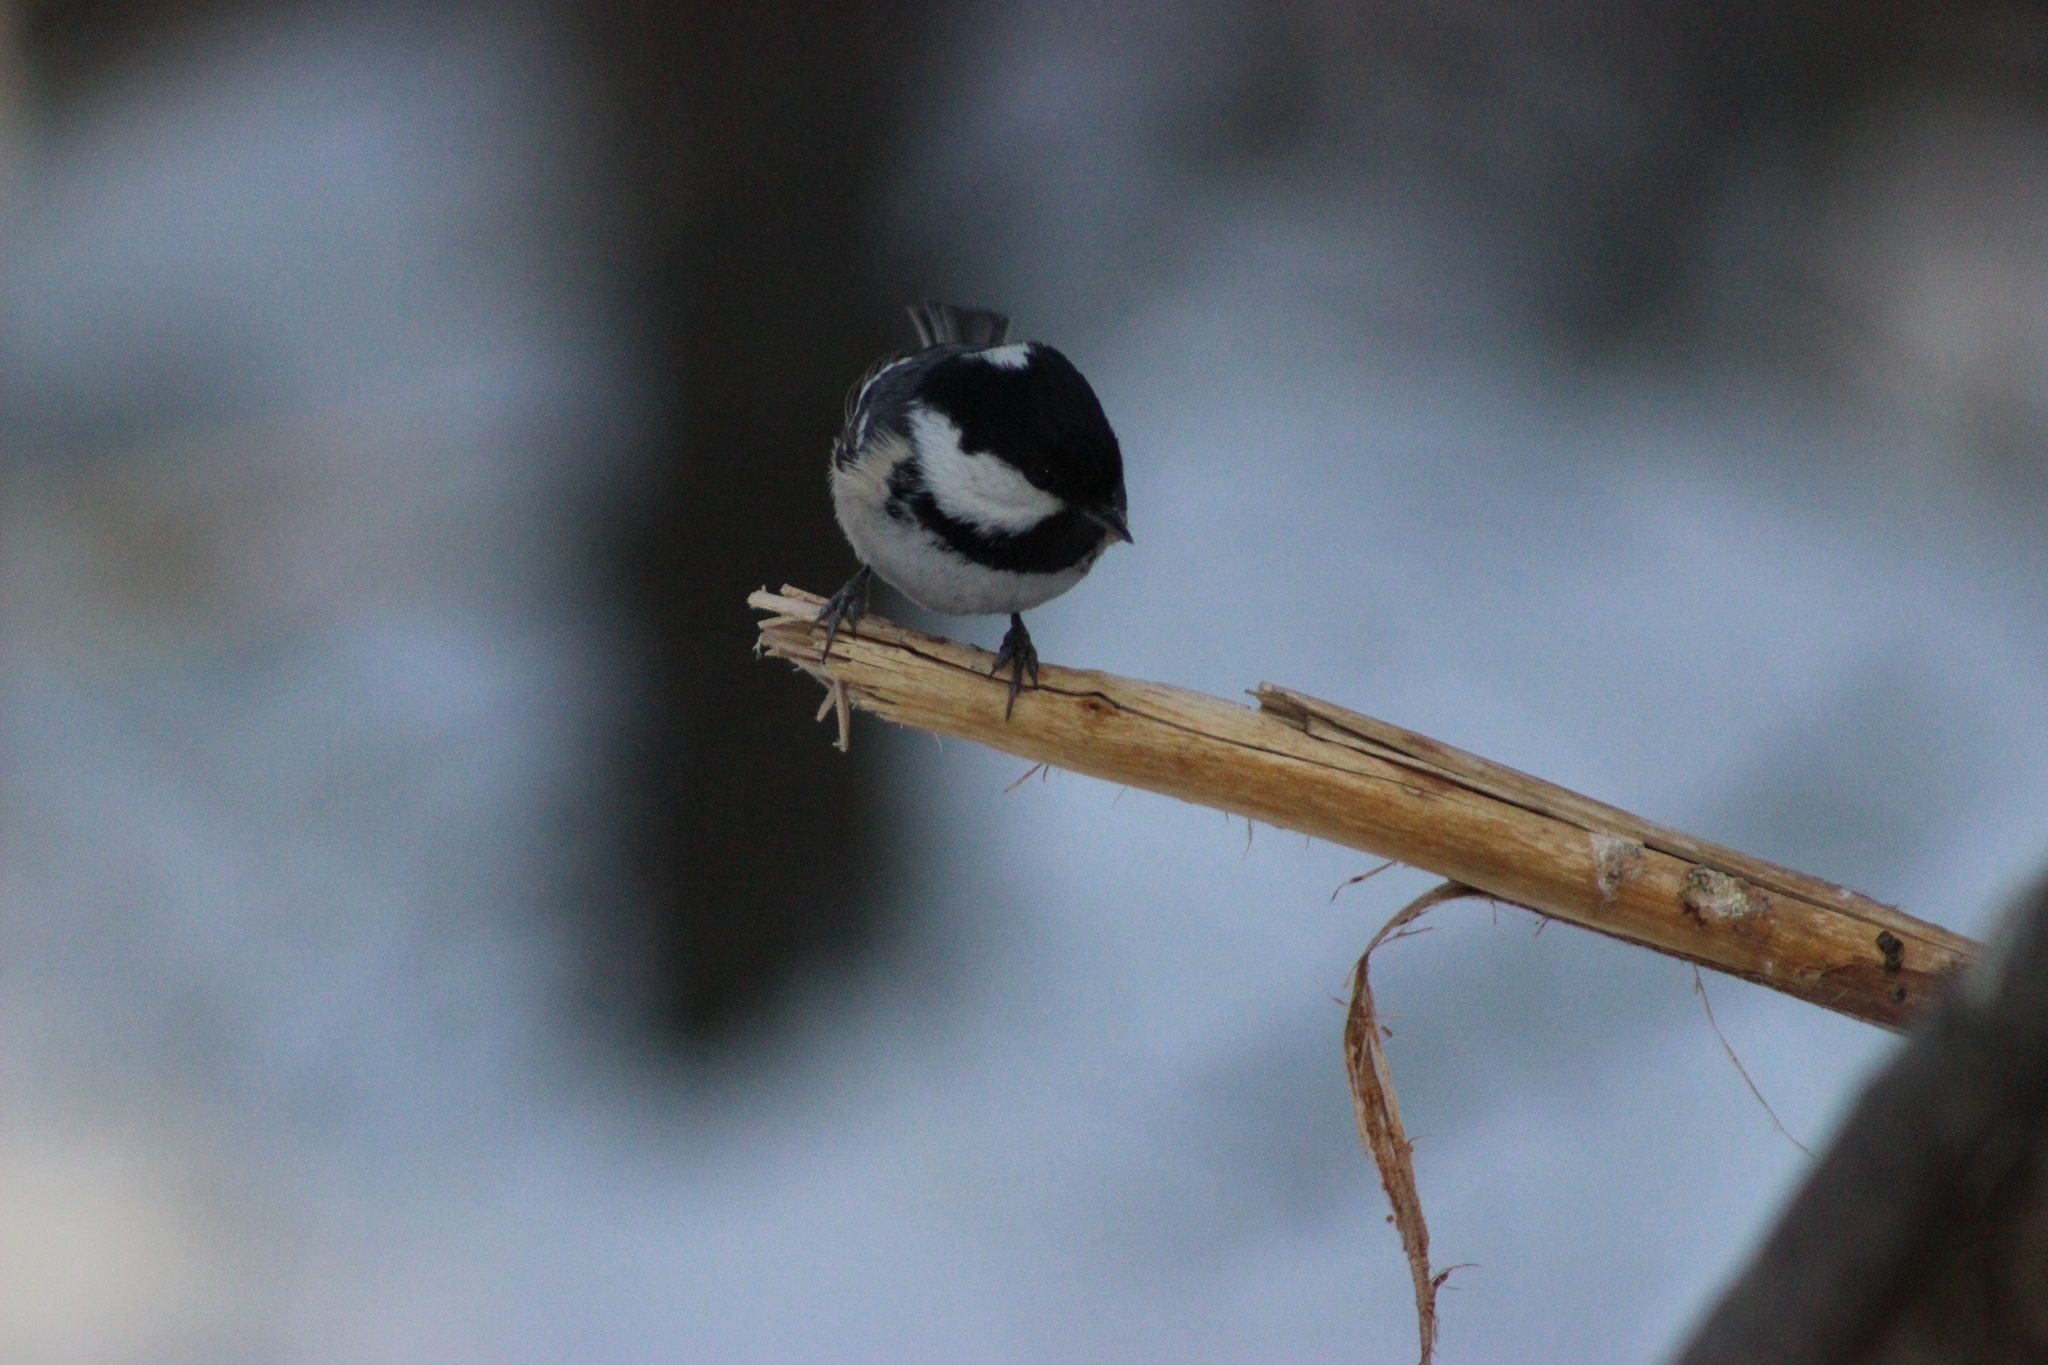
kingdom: Animalia
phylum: Chordata
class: Aves
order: Passeriformes
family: Paridae
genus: Periparus
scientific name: Periparus ater
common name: Coal tit
